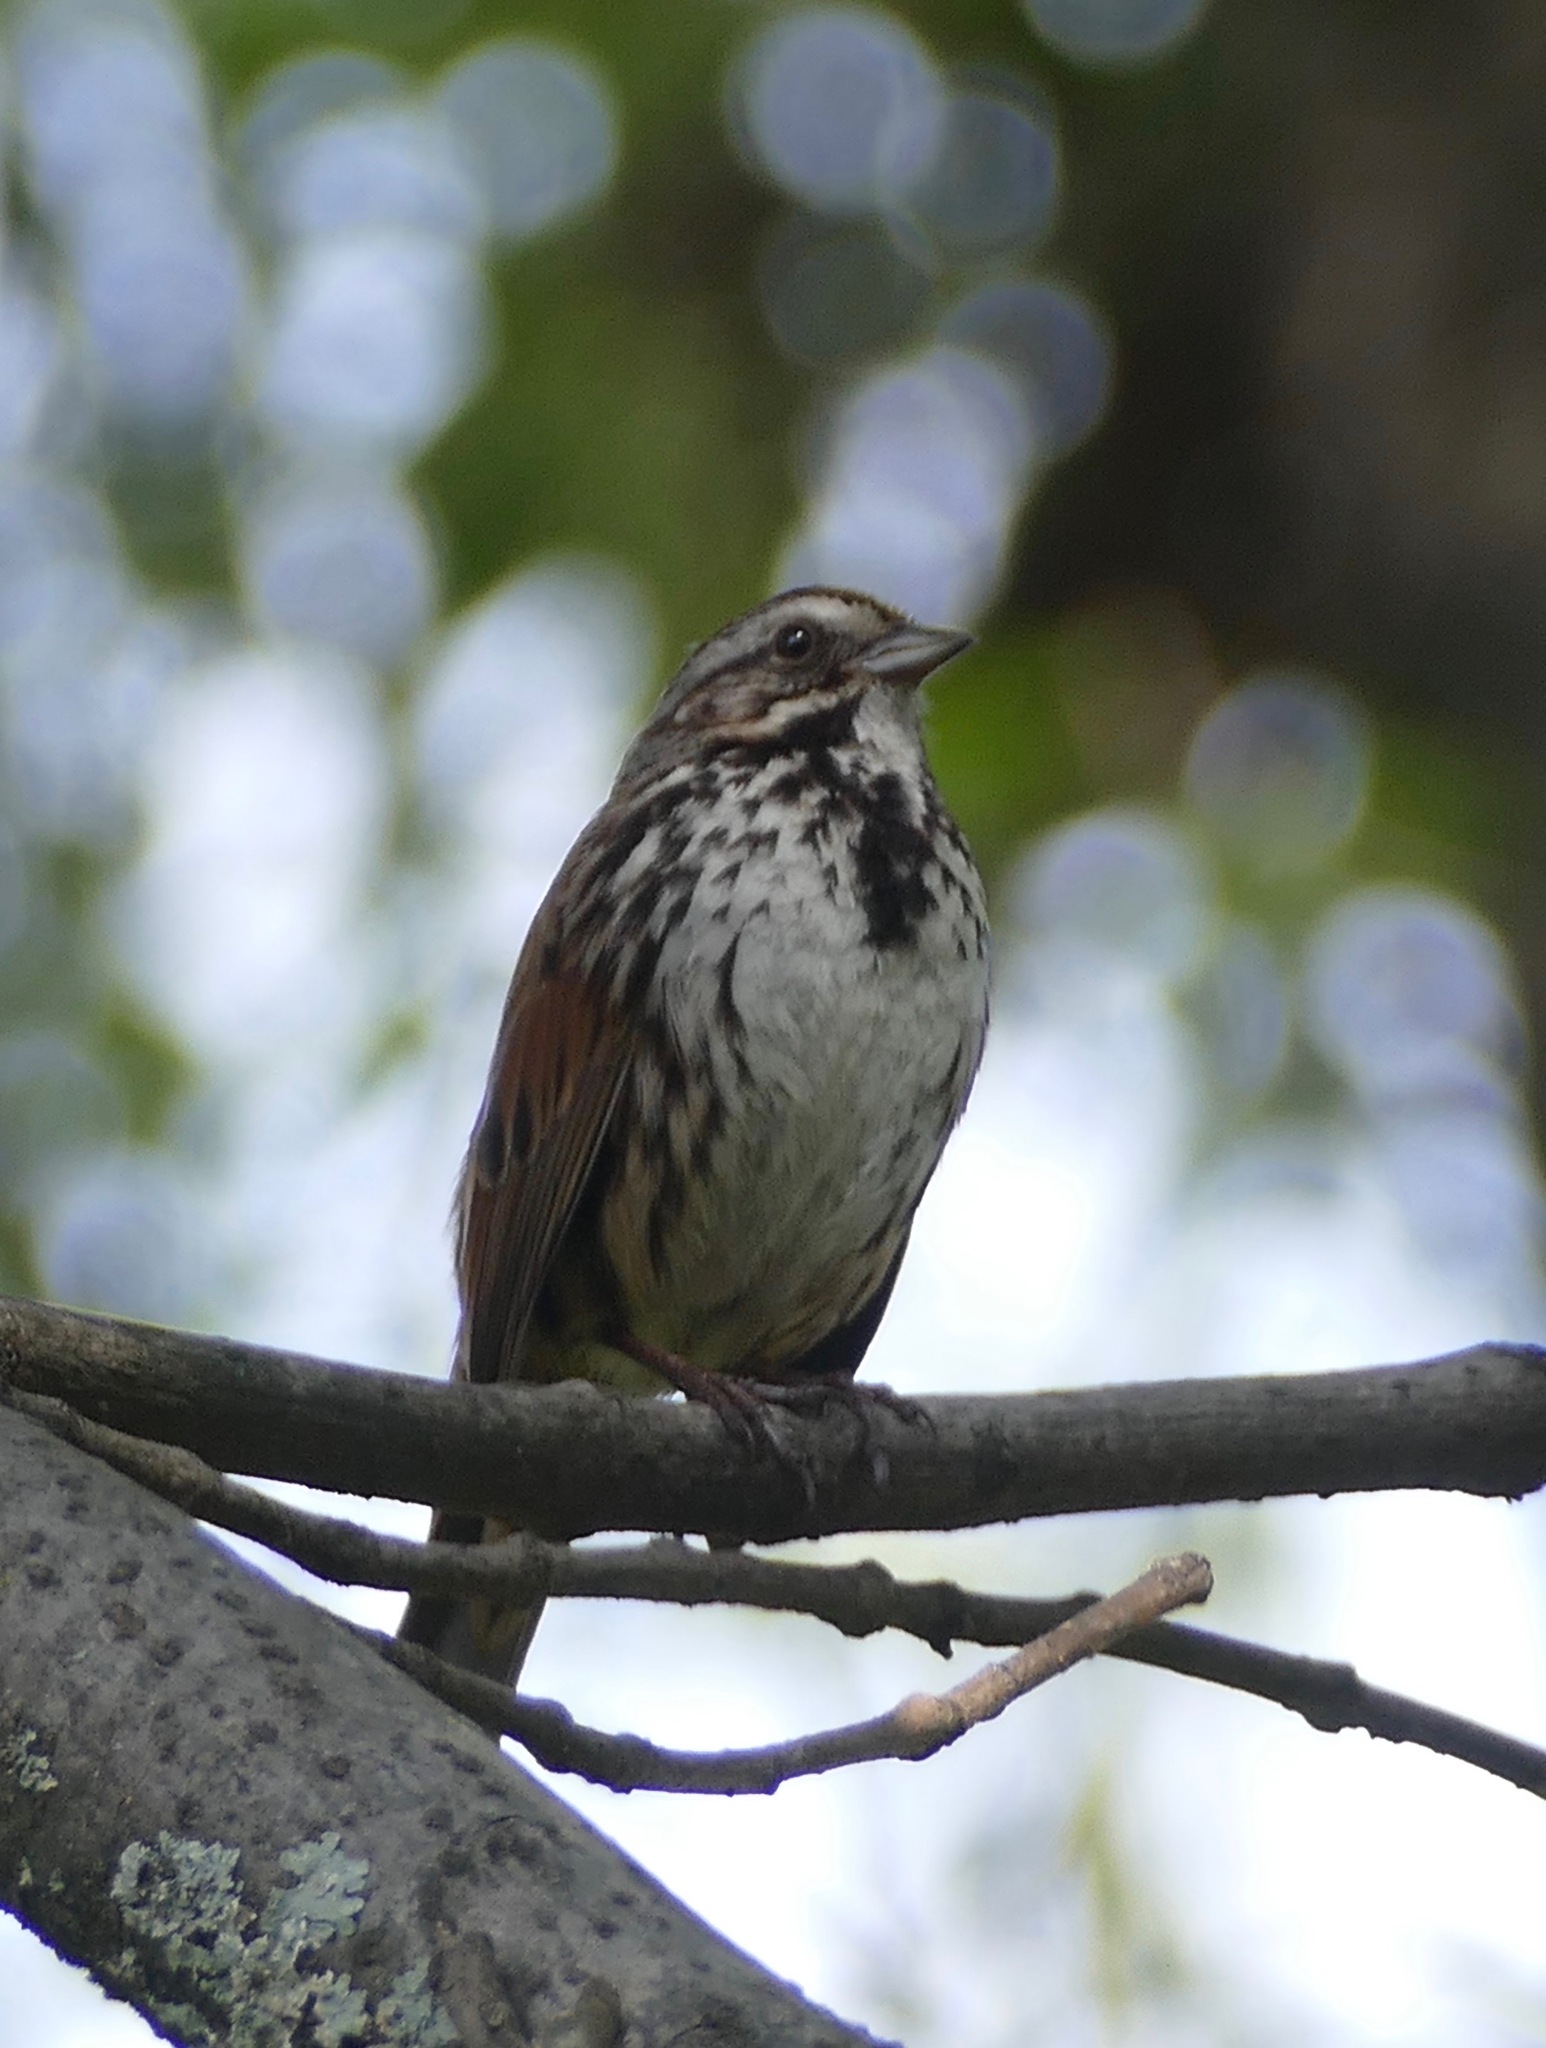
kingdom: Animalia
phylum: Chordata
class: Aves
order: Passeriformes
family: Passerellidae
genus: Melospiza
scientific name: Melospiza melodia
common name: Song sparrow
